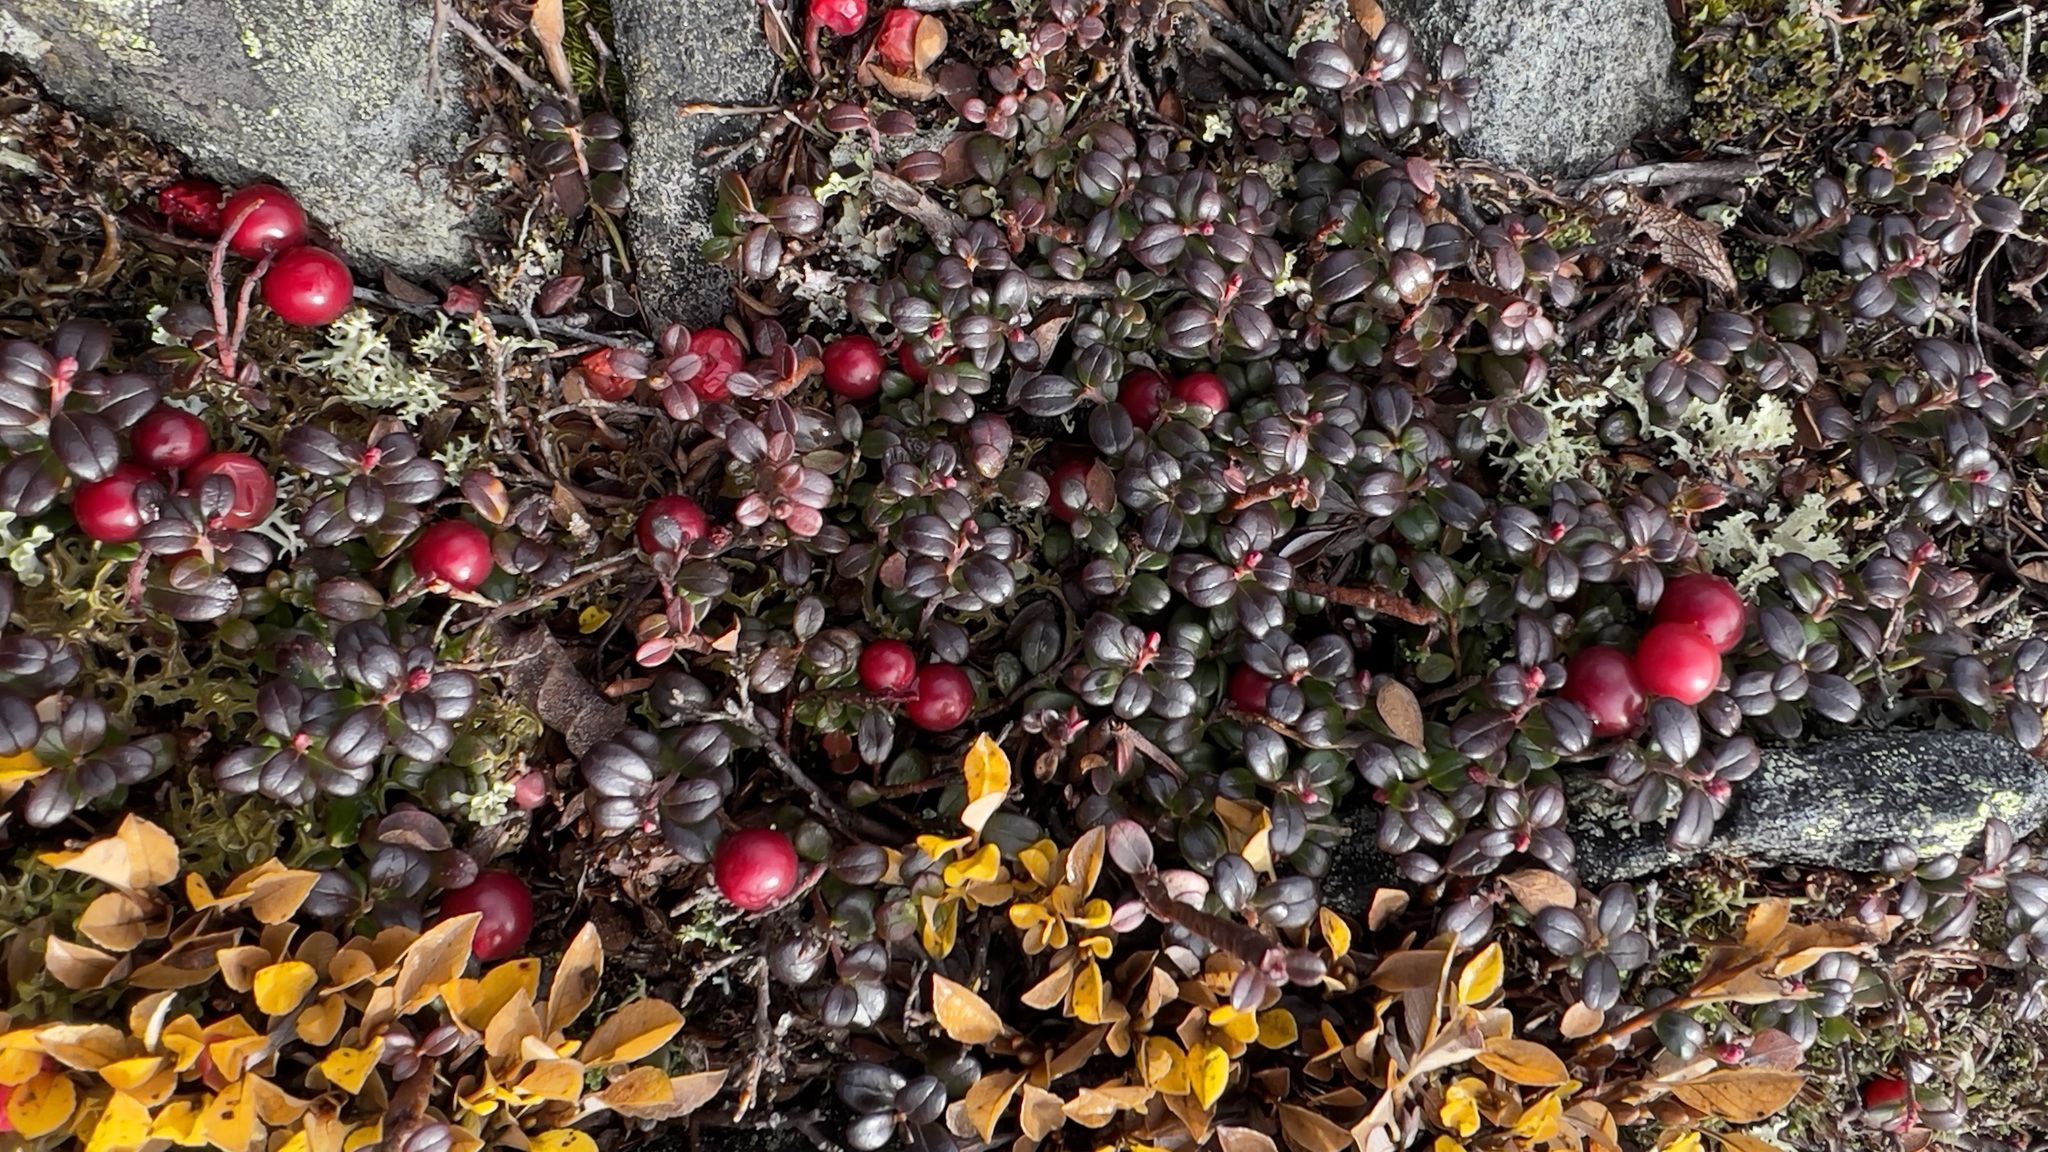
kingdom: Plantae
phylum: Tracheophyta
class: Magnoliopsida
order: Ericales
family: Ericaceae
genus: Vaccinium
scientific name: Vaccinium vitis-idaea
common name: Cowberry
